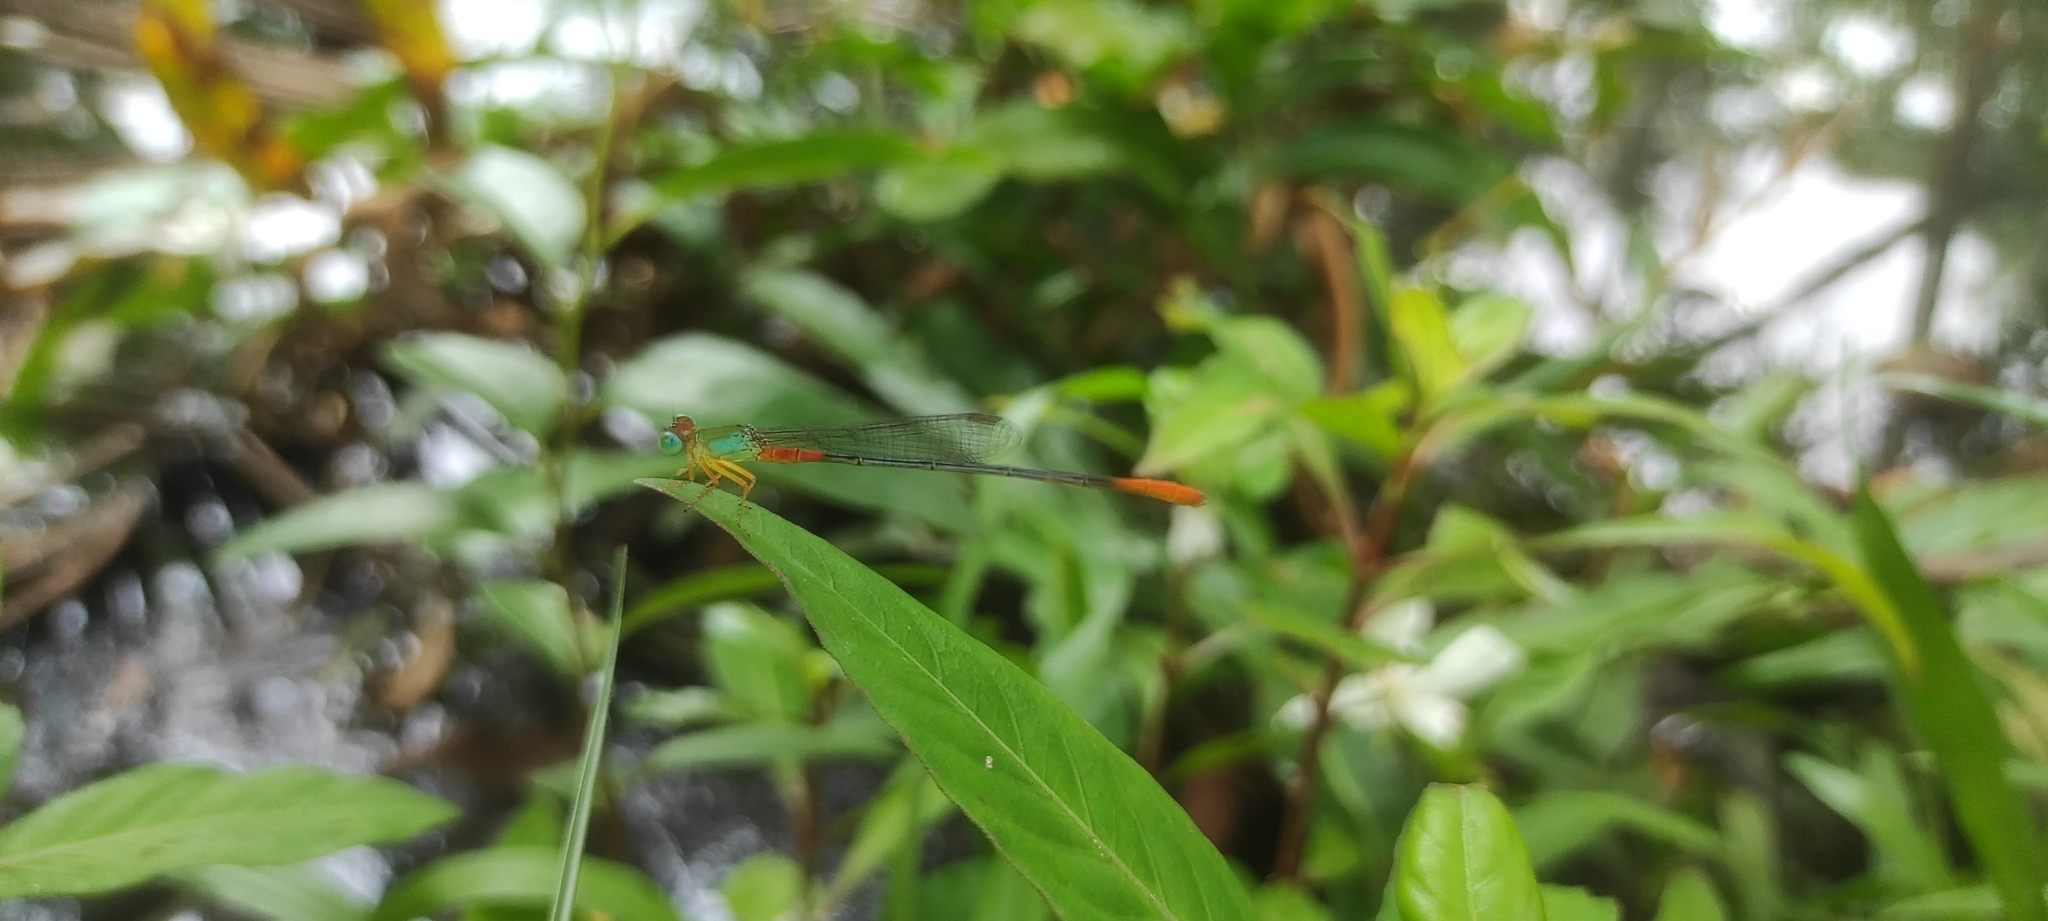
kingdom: Animalia
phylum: Arthropoda
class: Insecta
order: Odonata
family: Coenagrionidae
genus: Ceriagrion
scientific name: Ceriagrion cerinorubellum
